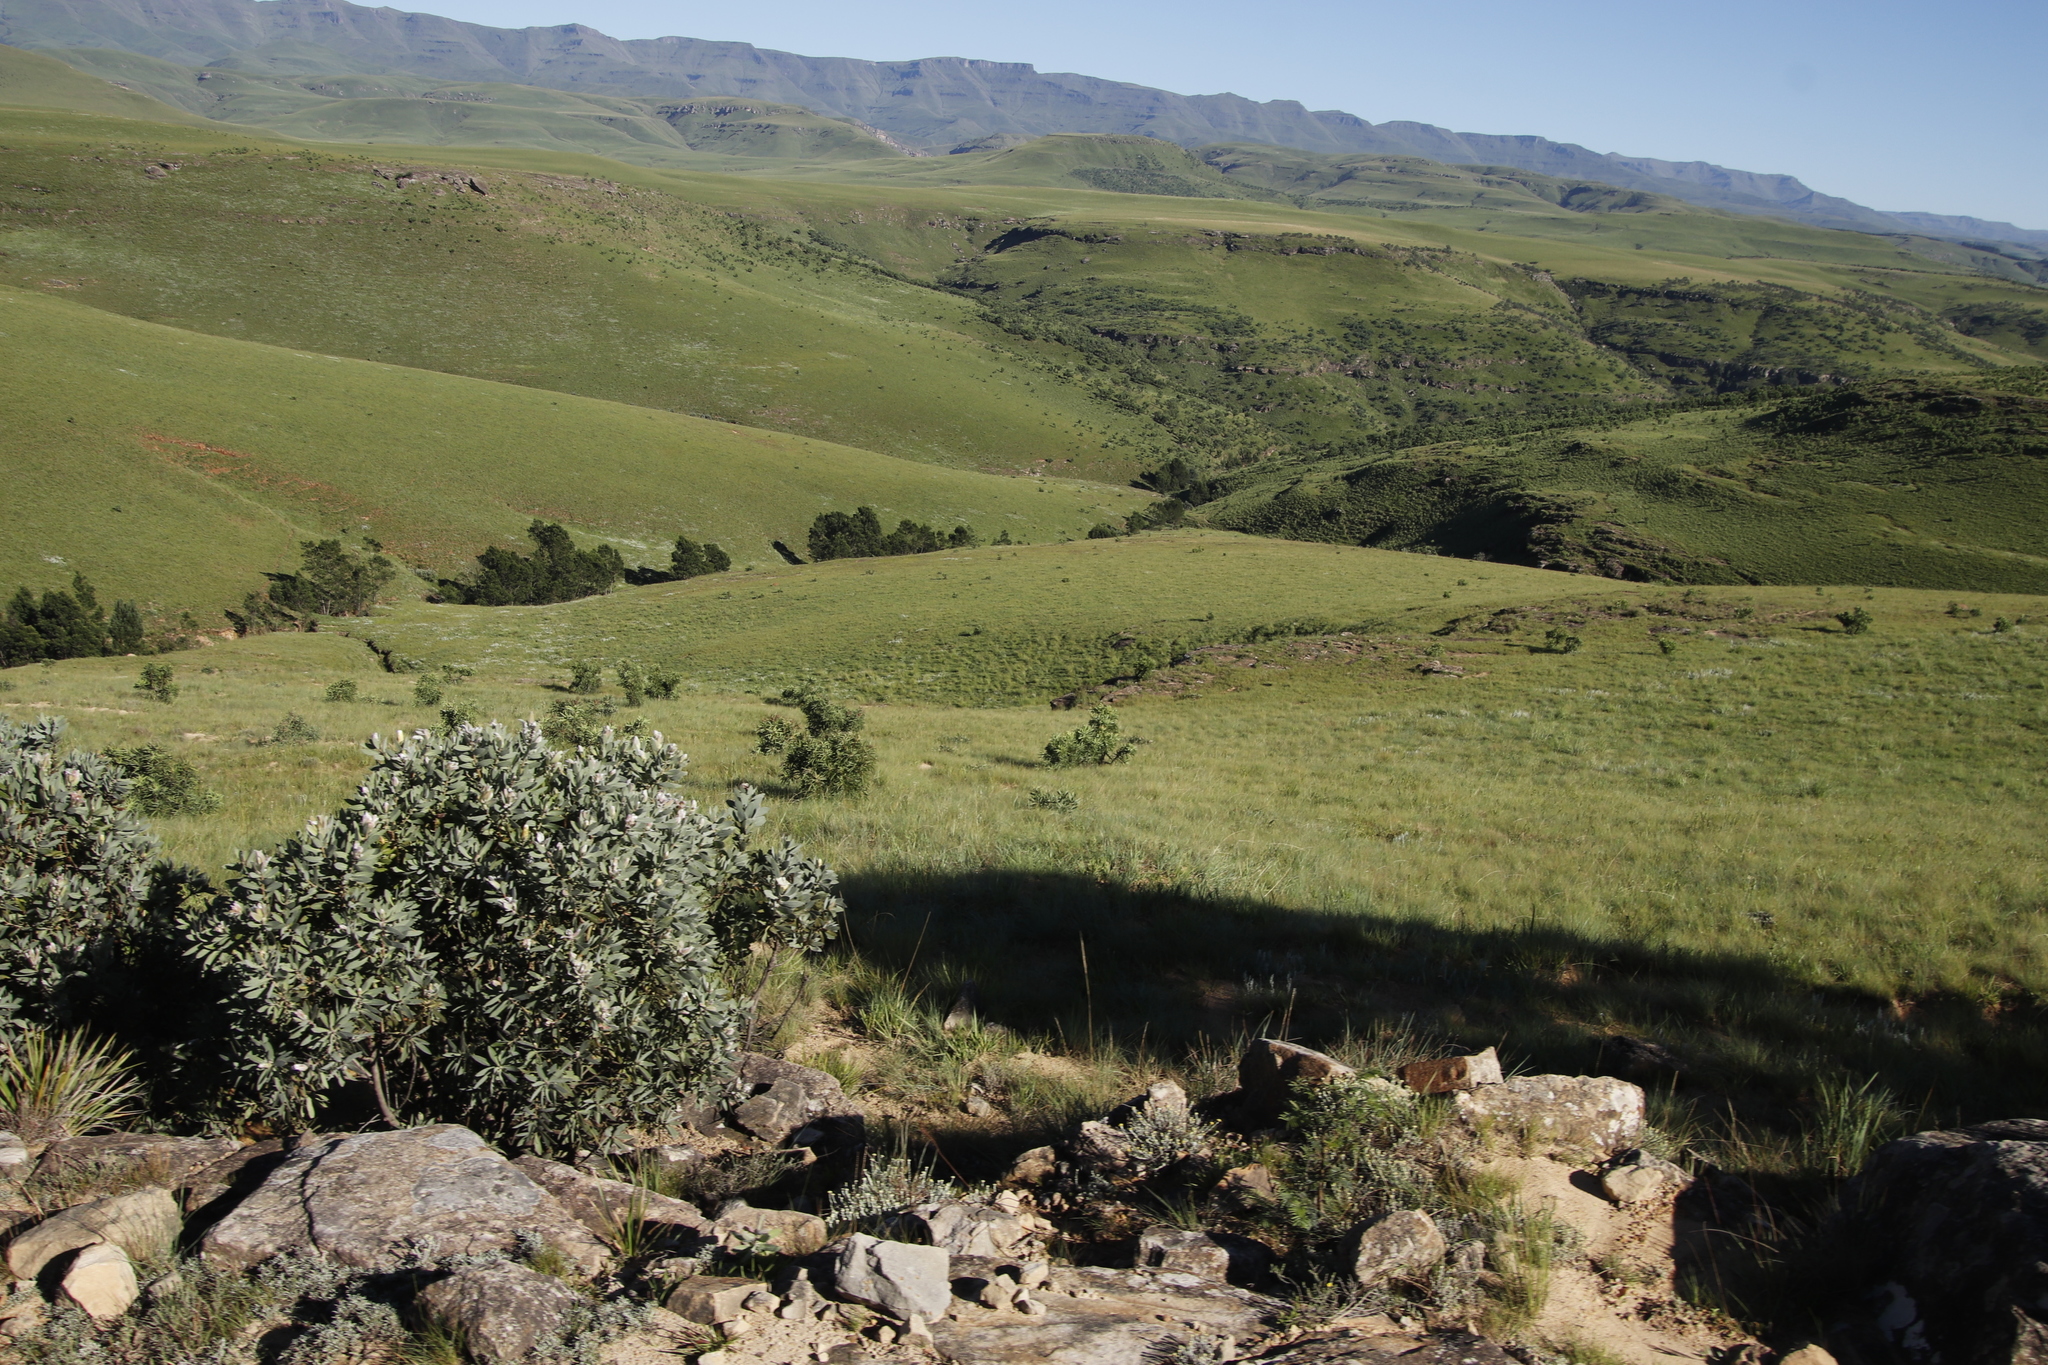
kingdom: Plantae
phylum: Tracheophyta
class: Magnoliopsida
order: Proteales
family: Proteaceae
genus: Protea
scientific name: Protea subvestita
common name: Lip-flower sugarbush
